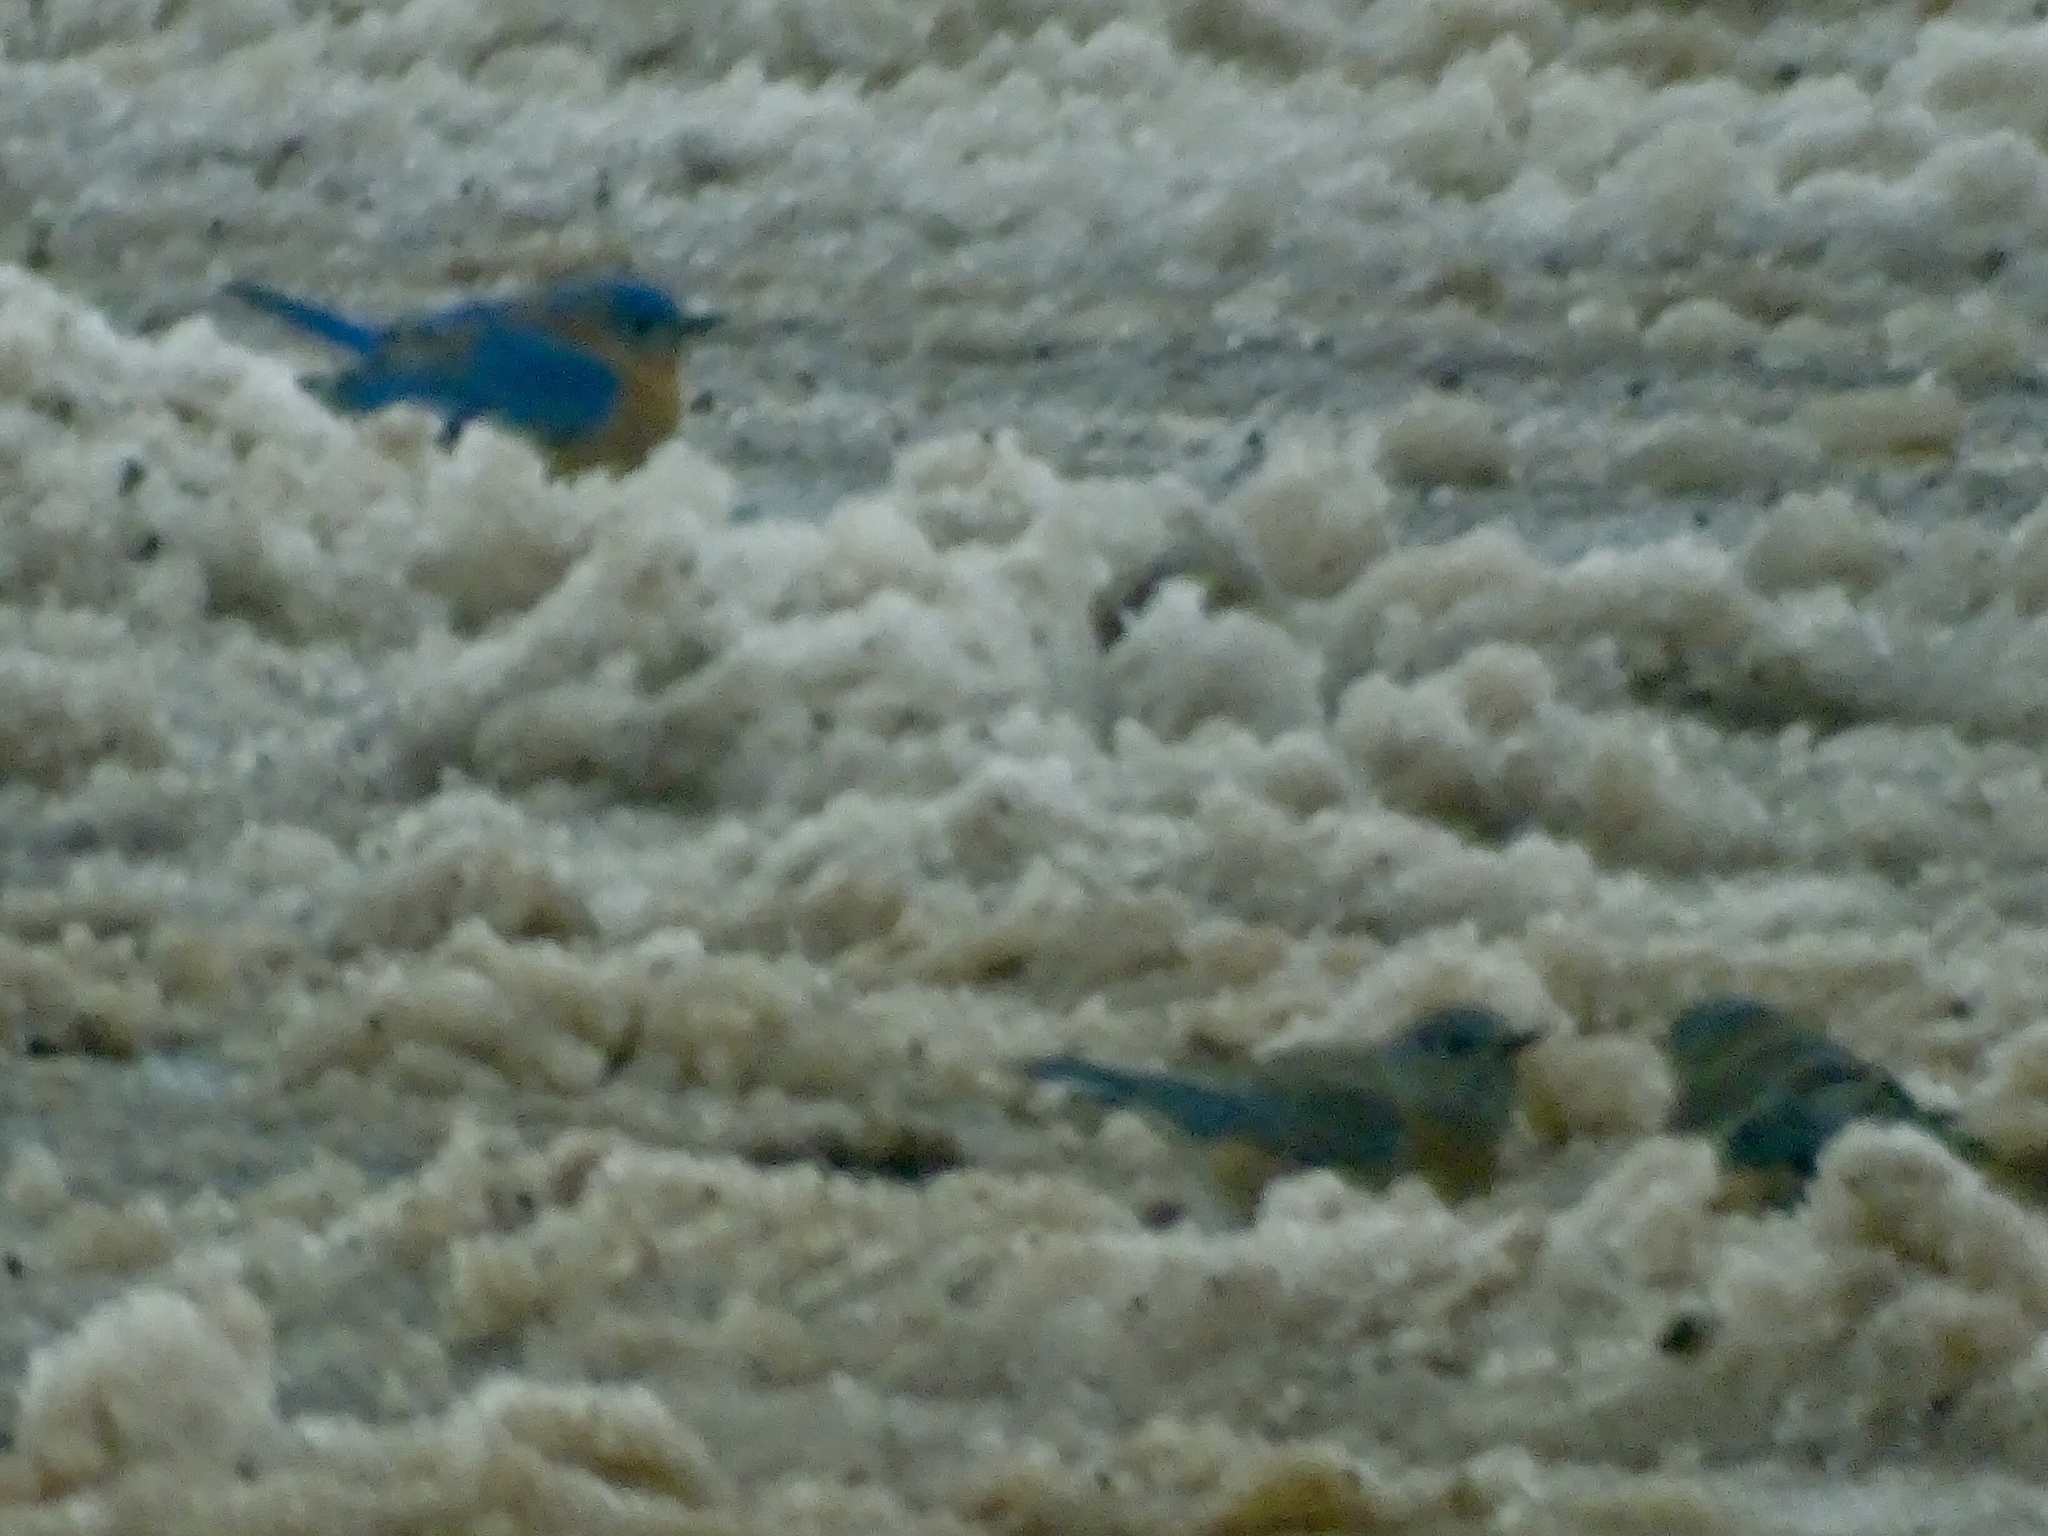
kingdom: Animalia
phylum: Chordata
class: Aves
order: Passeriformes
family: Turdidae
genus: Sialia
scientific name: Sialia mexicana
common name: Western bluebird
